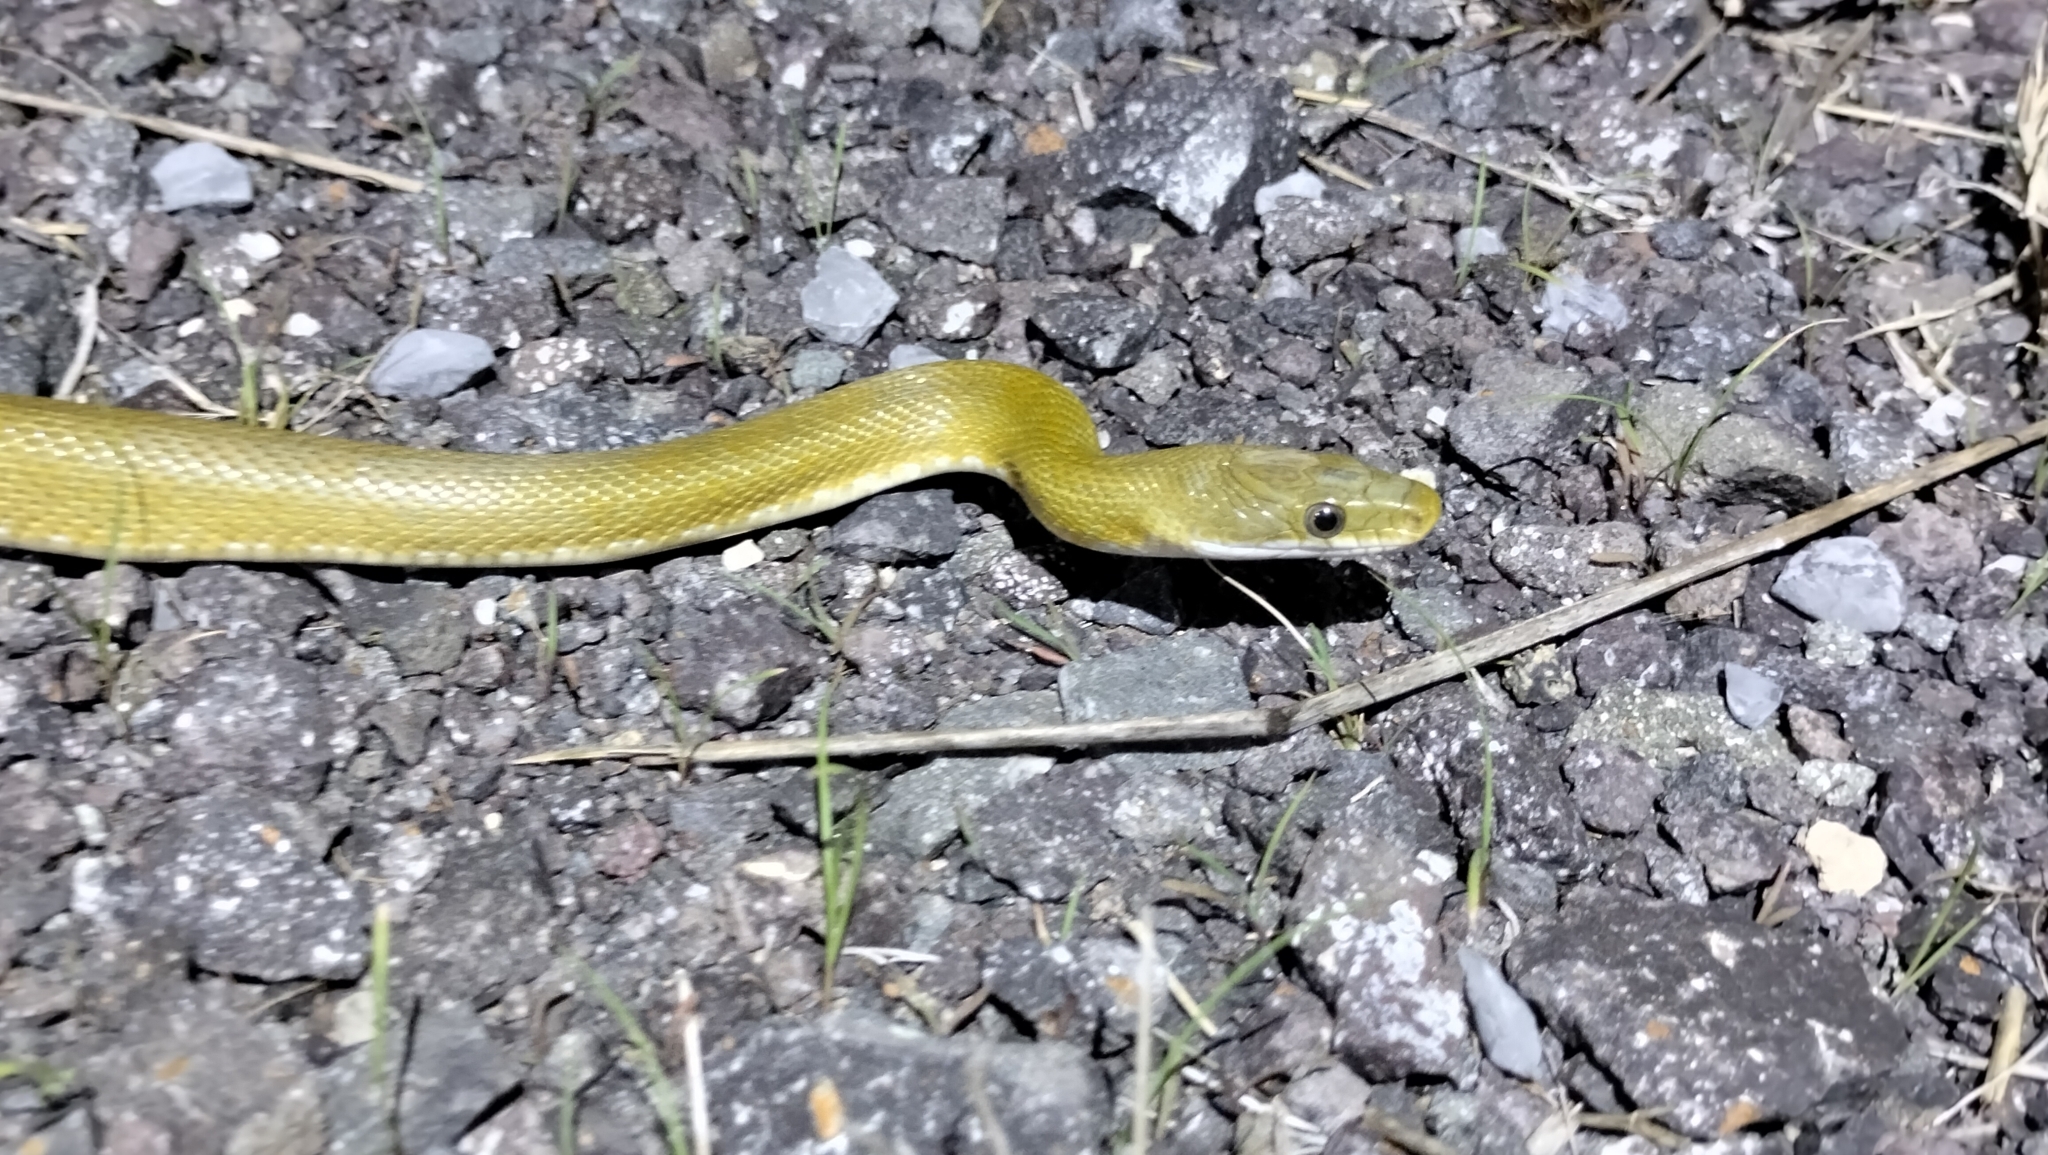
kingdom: Animalia
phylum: Chordata
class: Squamata
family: Colubridae
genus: Senticolis
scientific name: Senticolis triaspis
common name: Green rat snake
